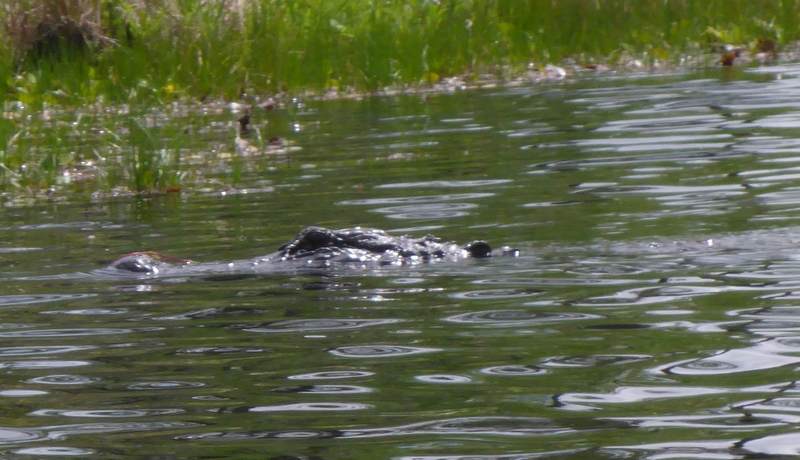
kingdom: Animalia
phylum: Chordata
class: Crocodylia
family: Alligatoridae
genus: Alligator
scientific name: Alligator mississippiensis
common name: American alligator
